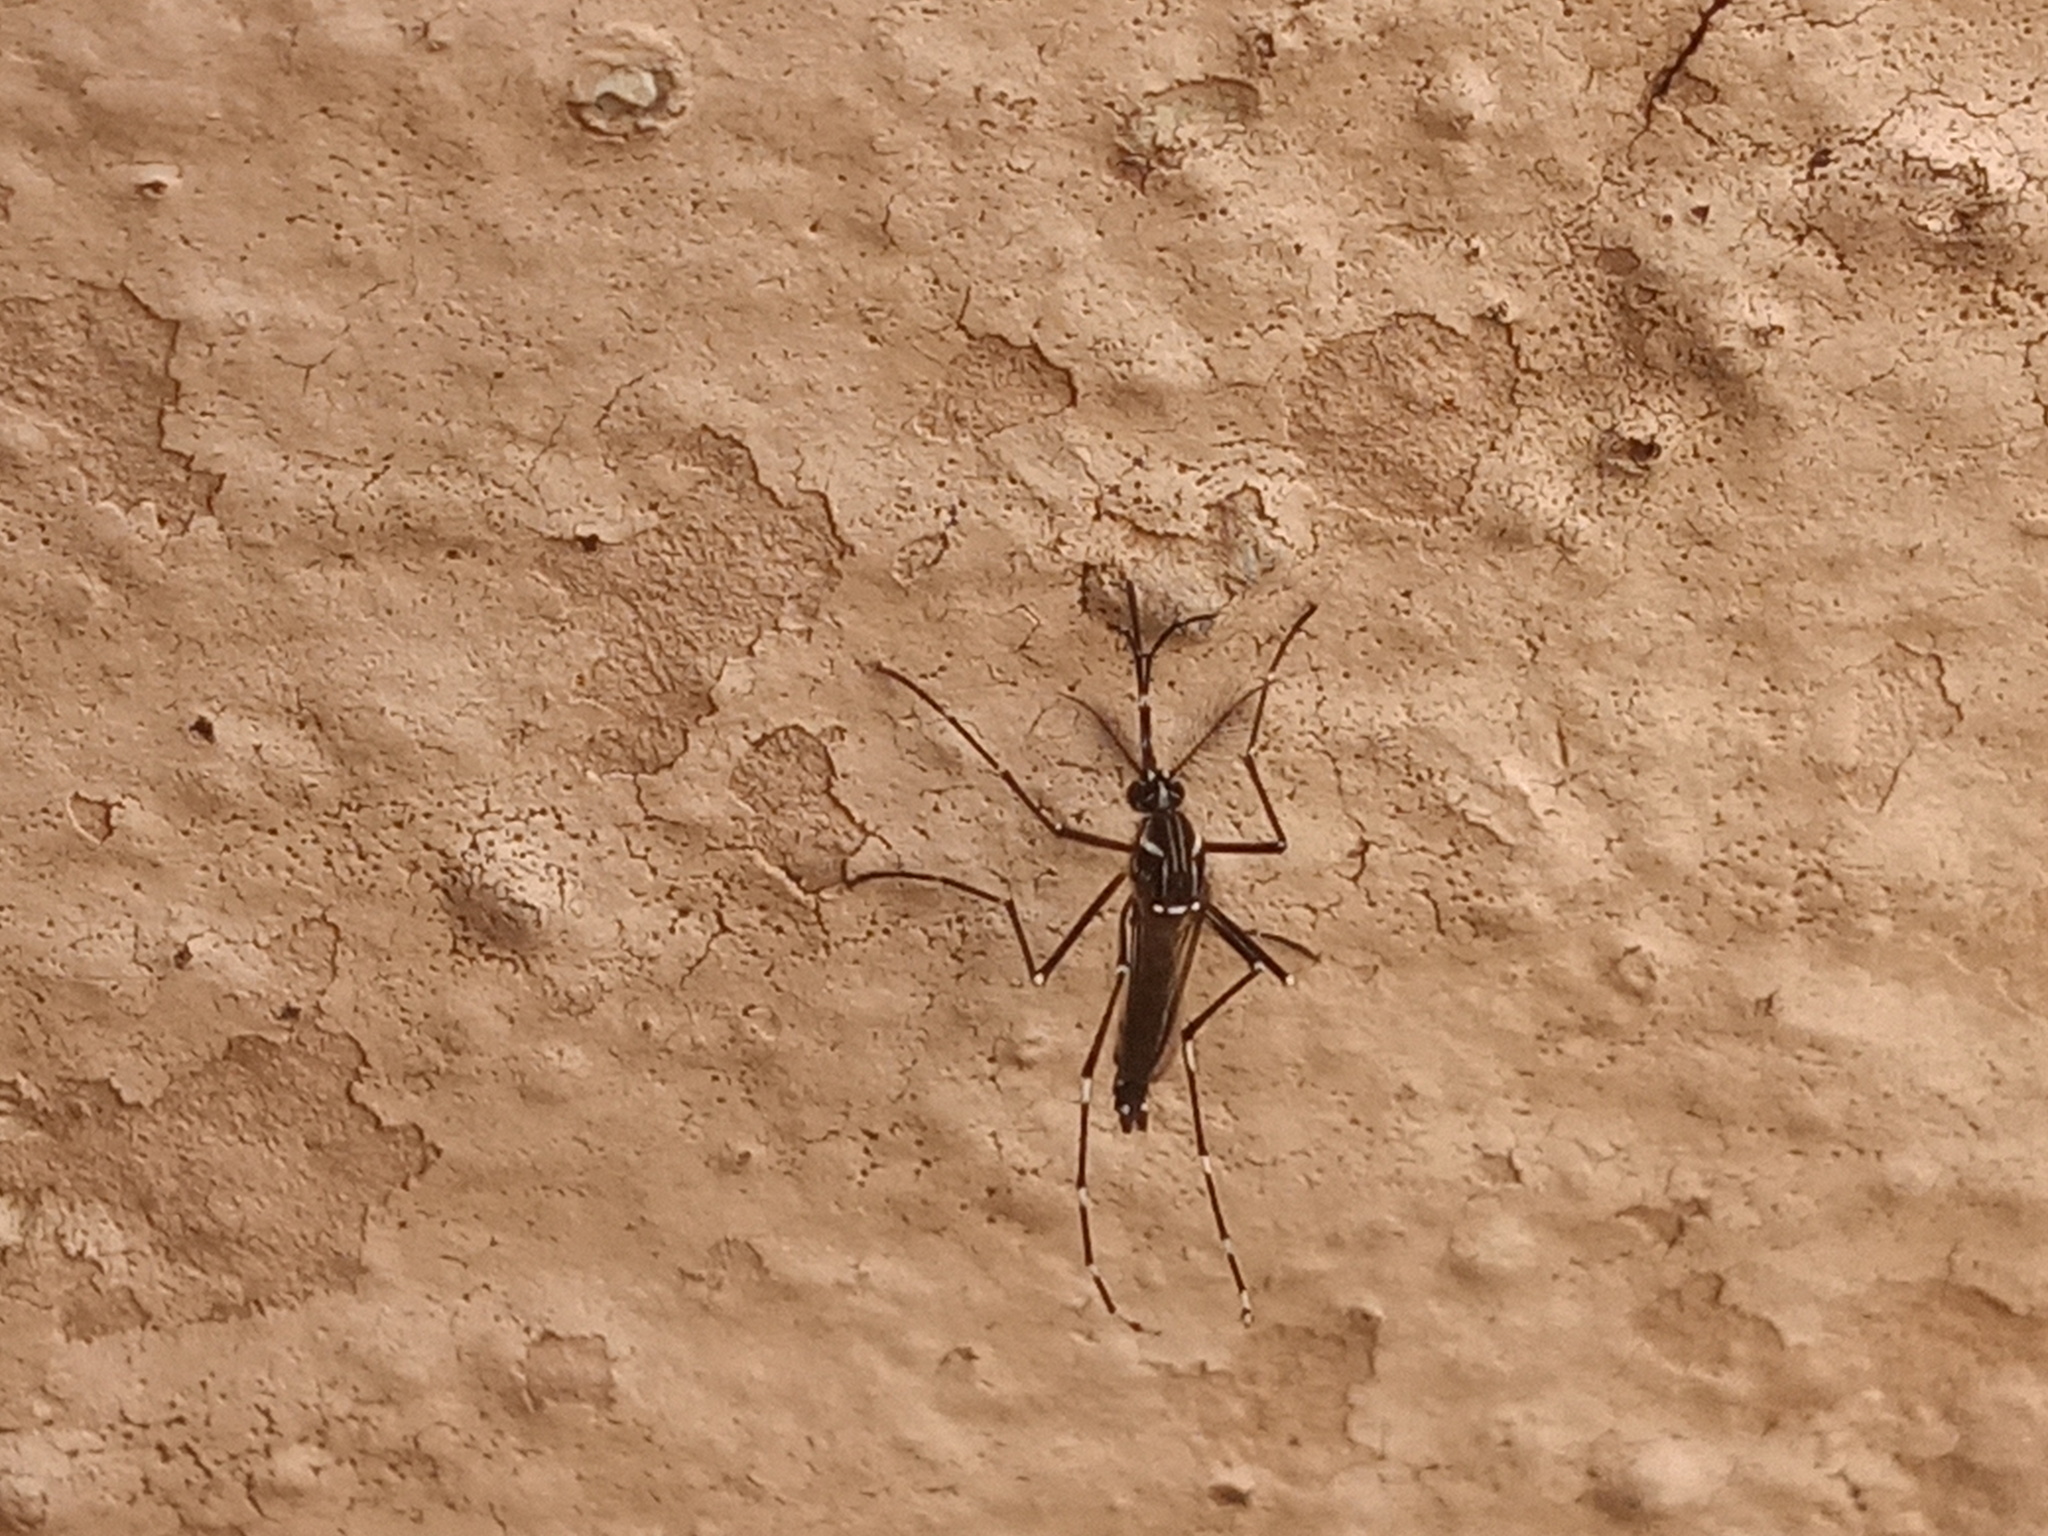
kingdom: Animalia
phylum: Arthropoda
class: Insecta
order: Diptera
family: Culicidae
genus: Aedes
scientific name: Aedes aegypti
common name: Yellow fever mosquito
